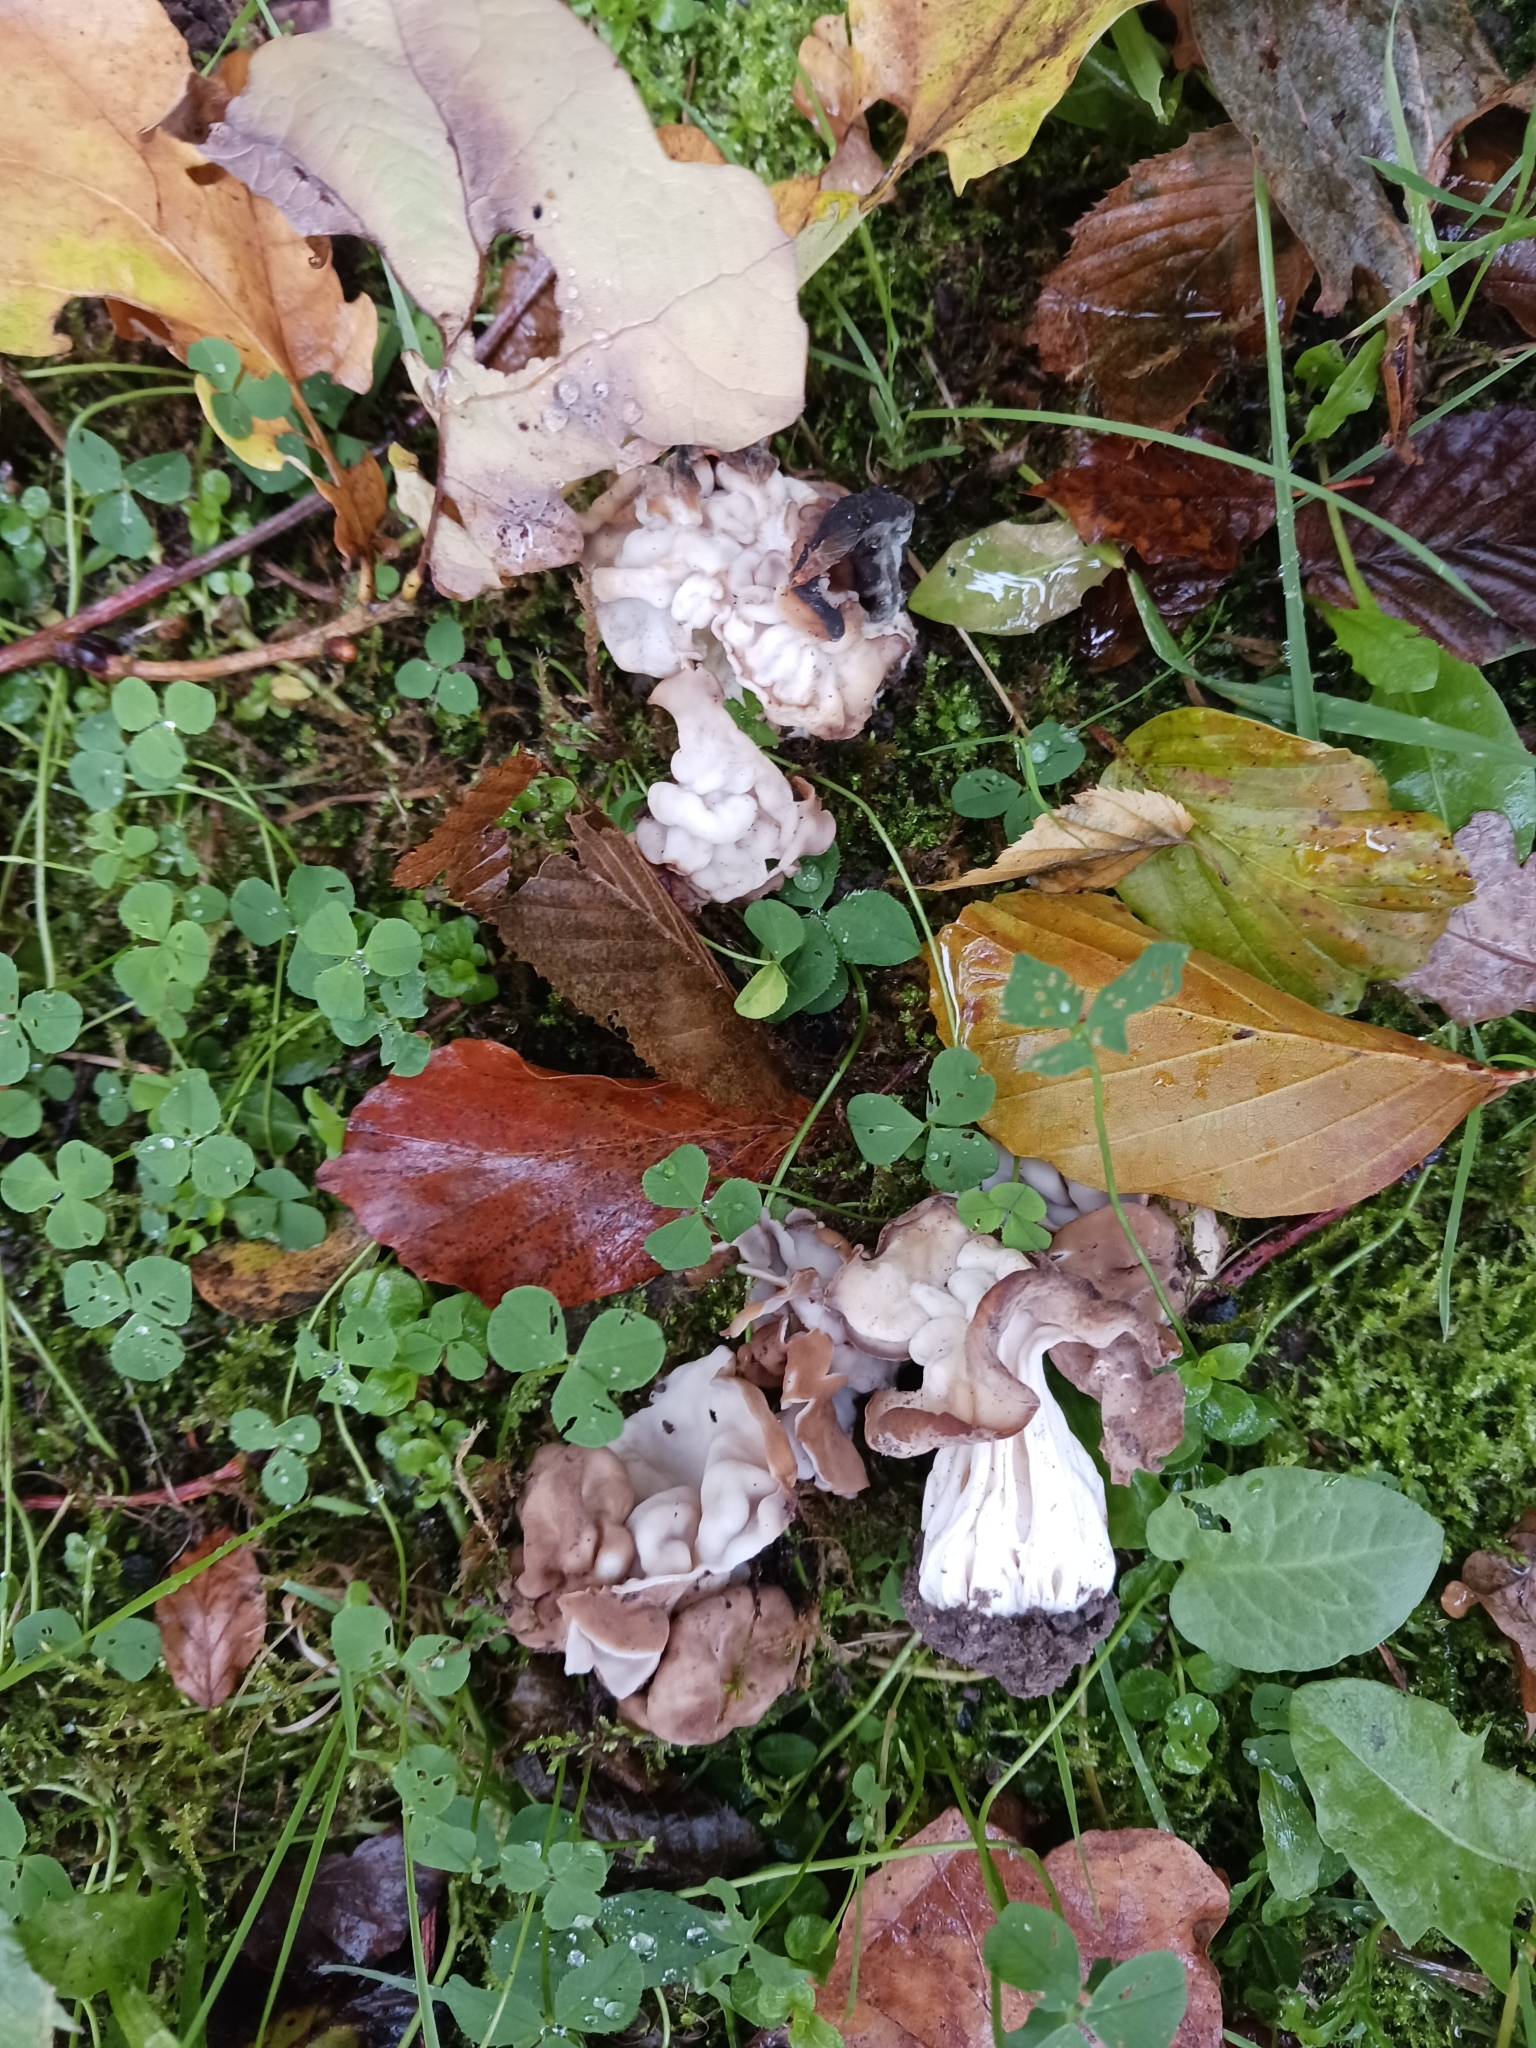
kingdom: Fungi
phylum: Ascomycota
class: Pezizomycetes
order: Pezizales
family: Helvellaceae
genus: Helvella
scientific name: Helvella crispa
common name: White saddle
